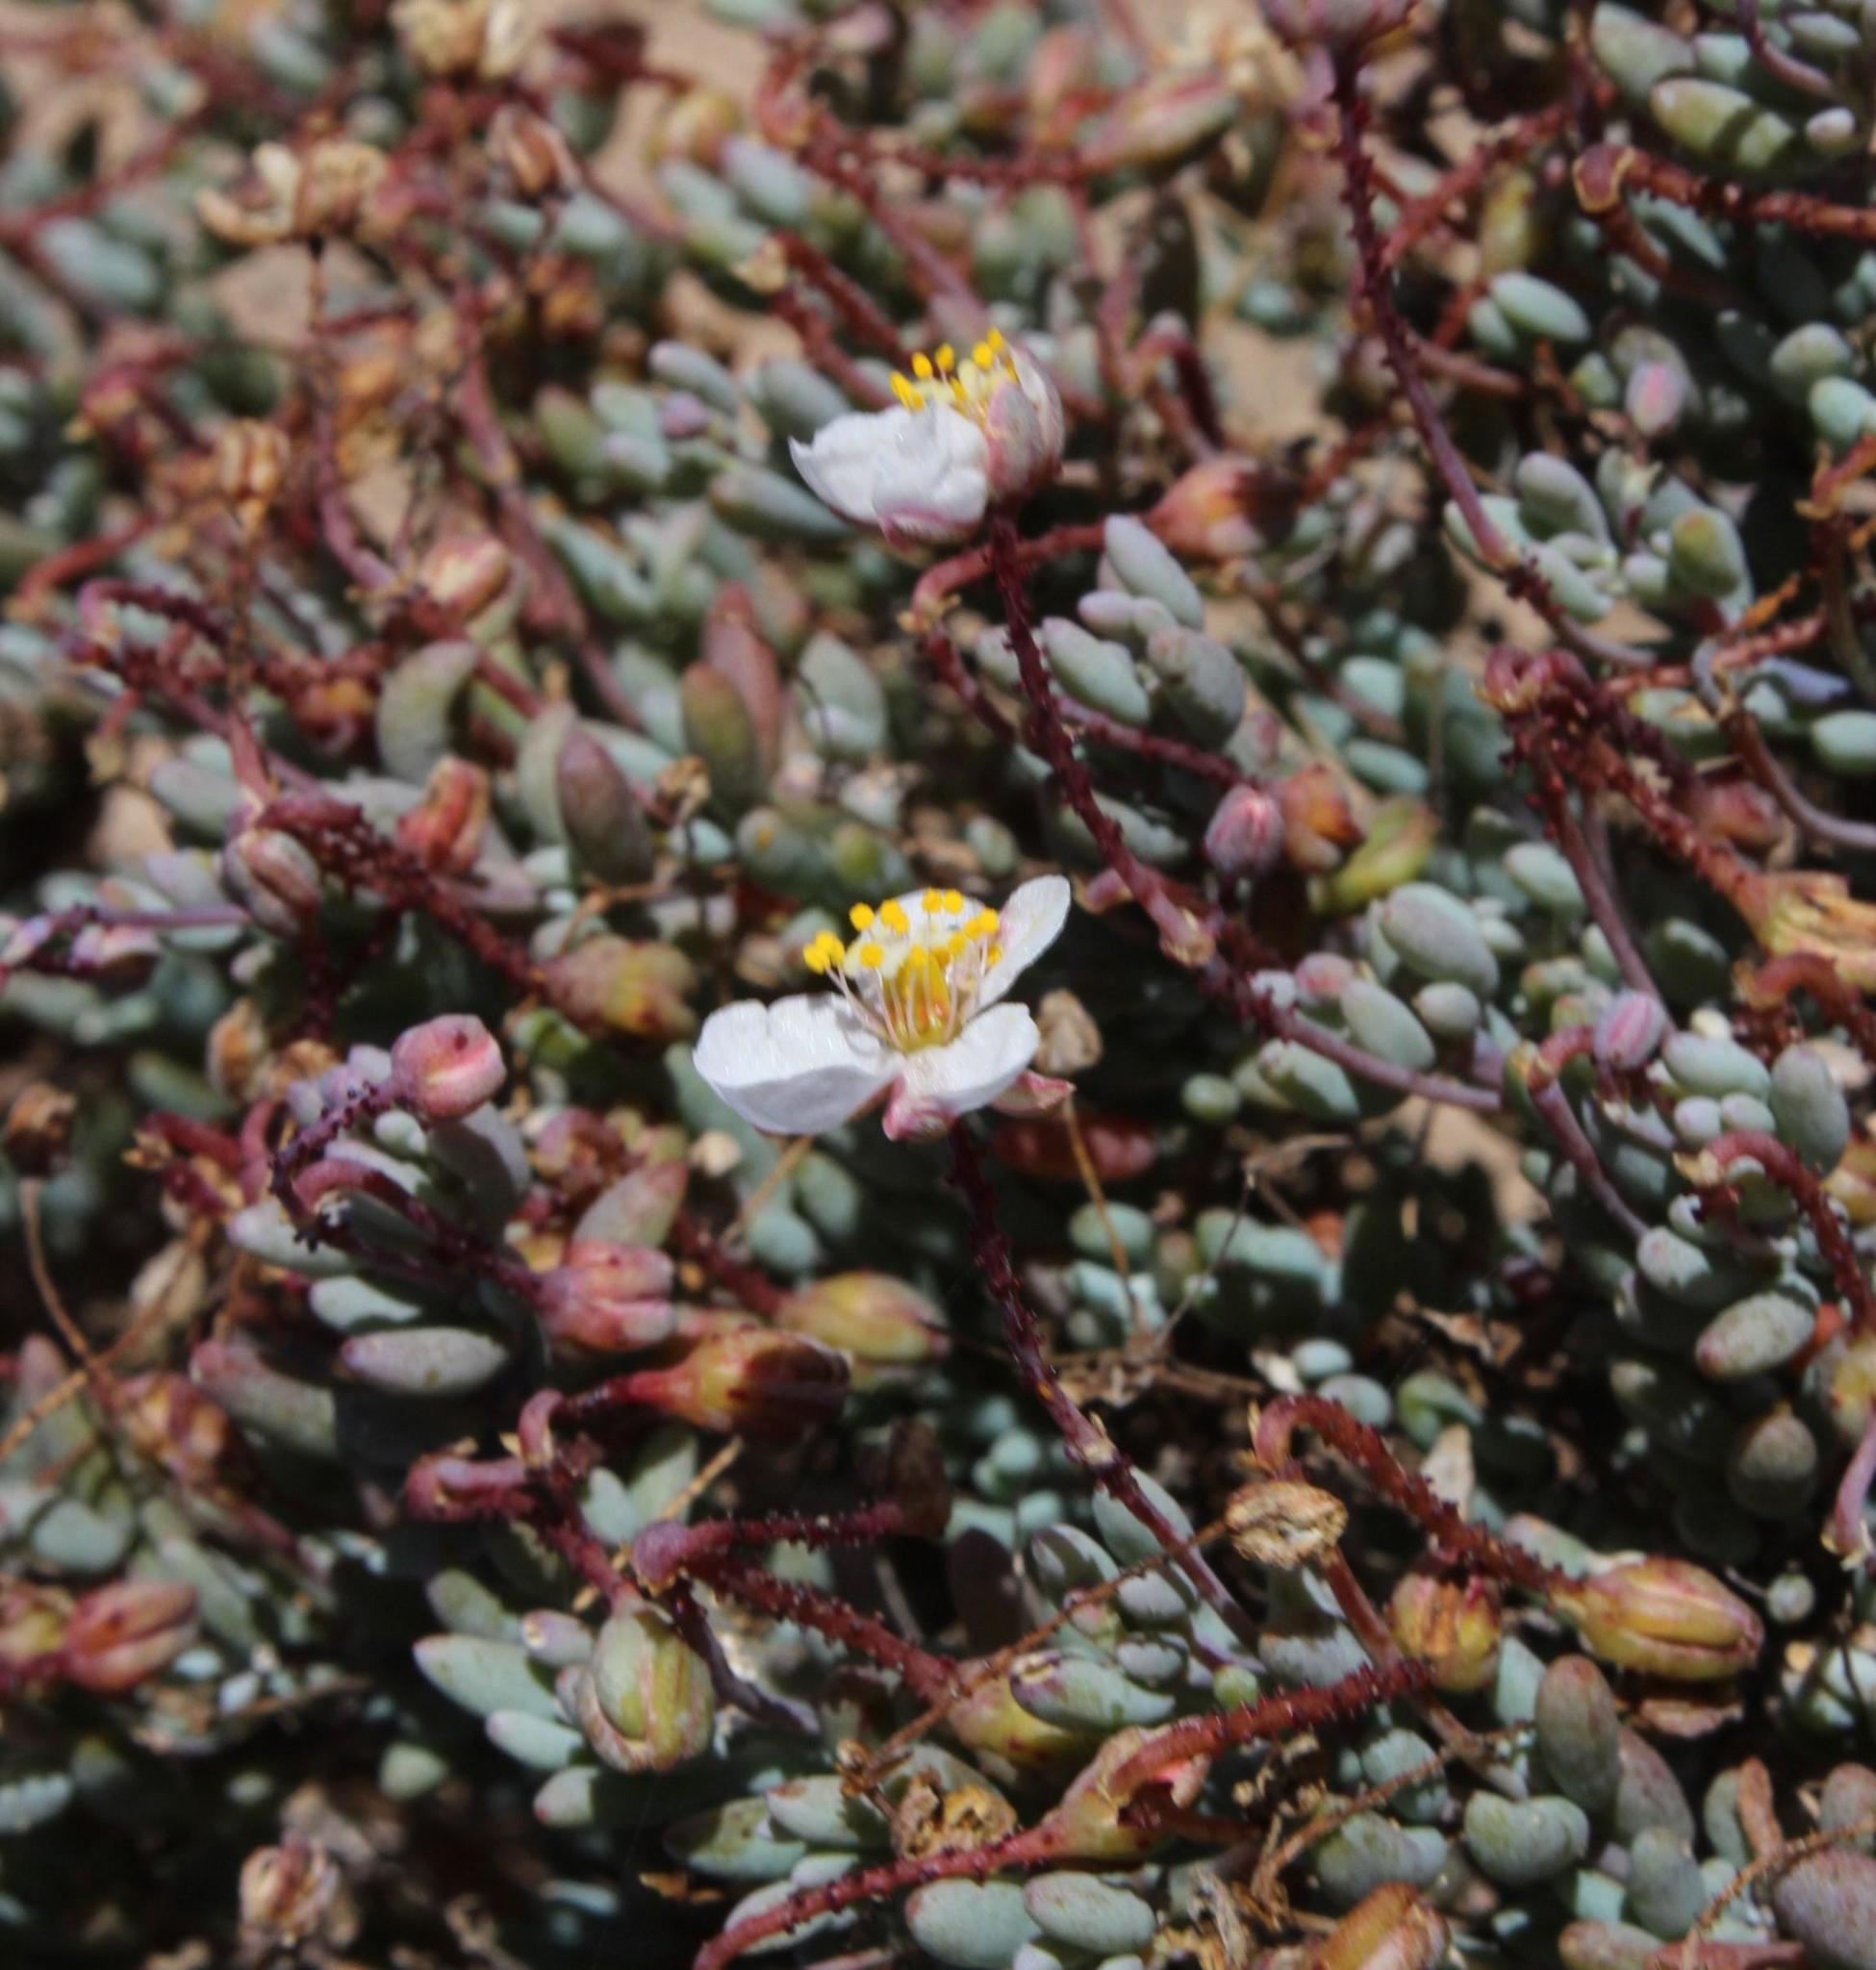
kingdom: Plantae
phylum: Tracheophyta
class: Magnoliopsida
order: Caryophyllales
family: Kewaceae
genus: Kewa
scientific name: Kewa salsoloides
